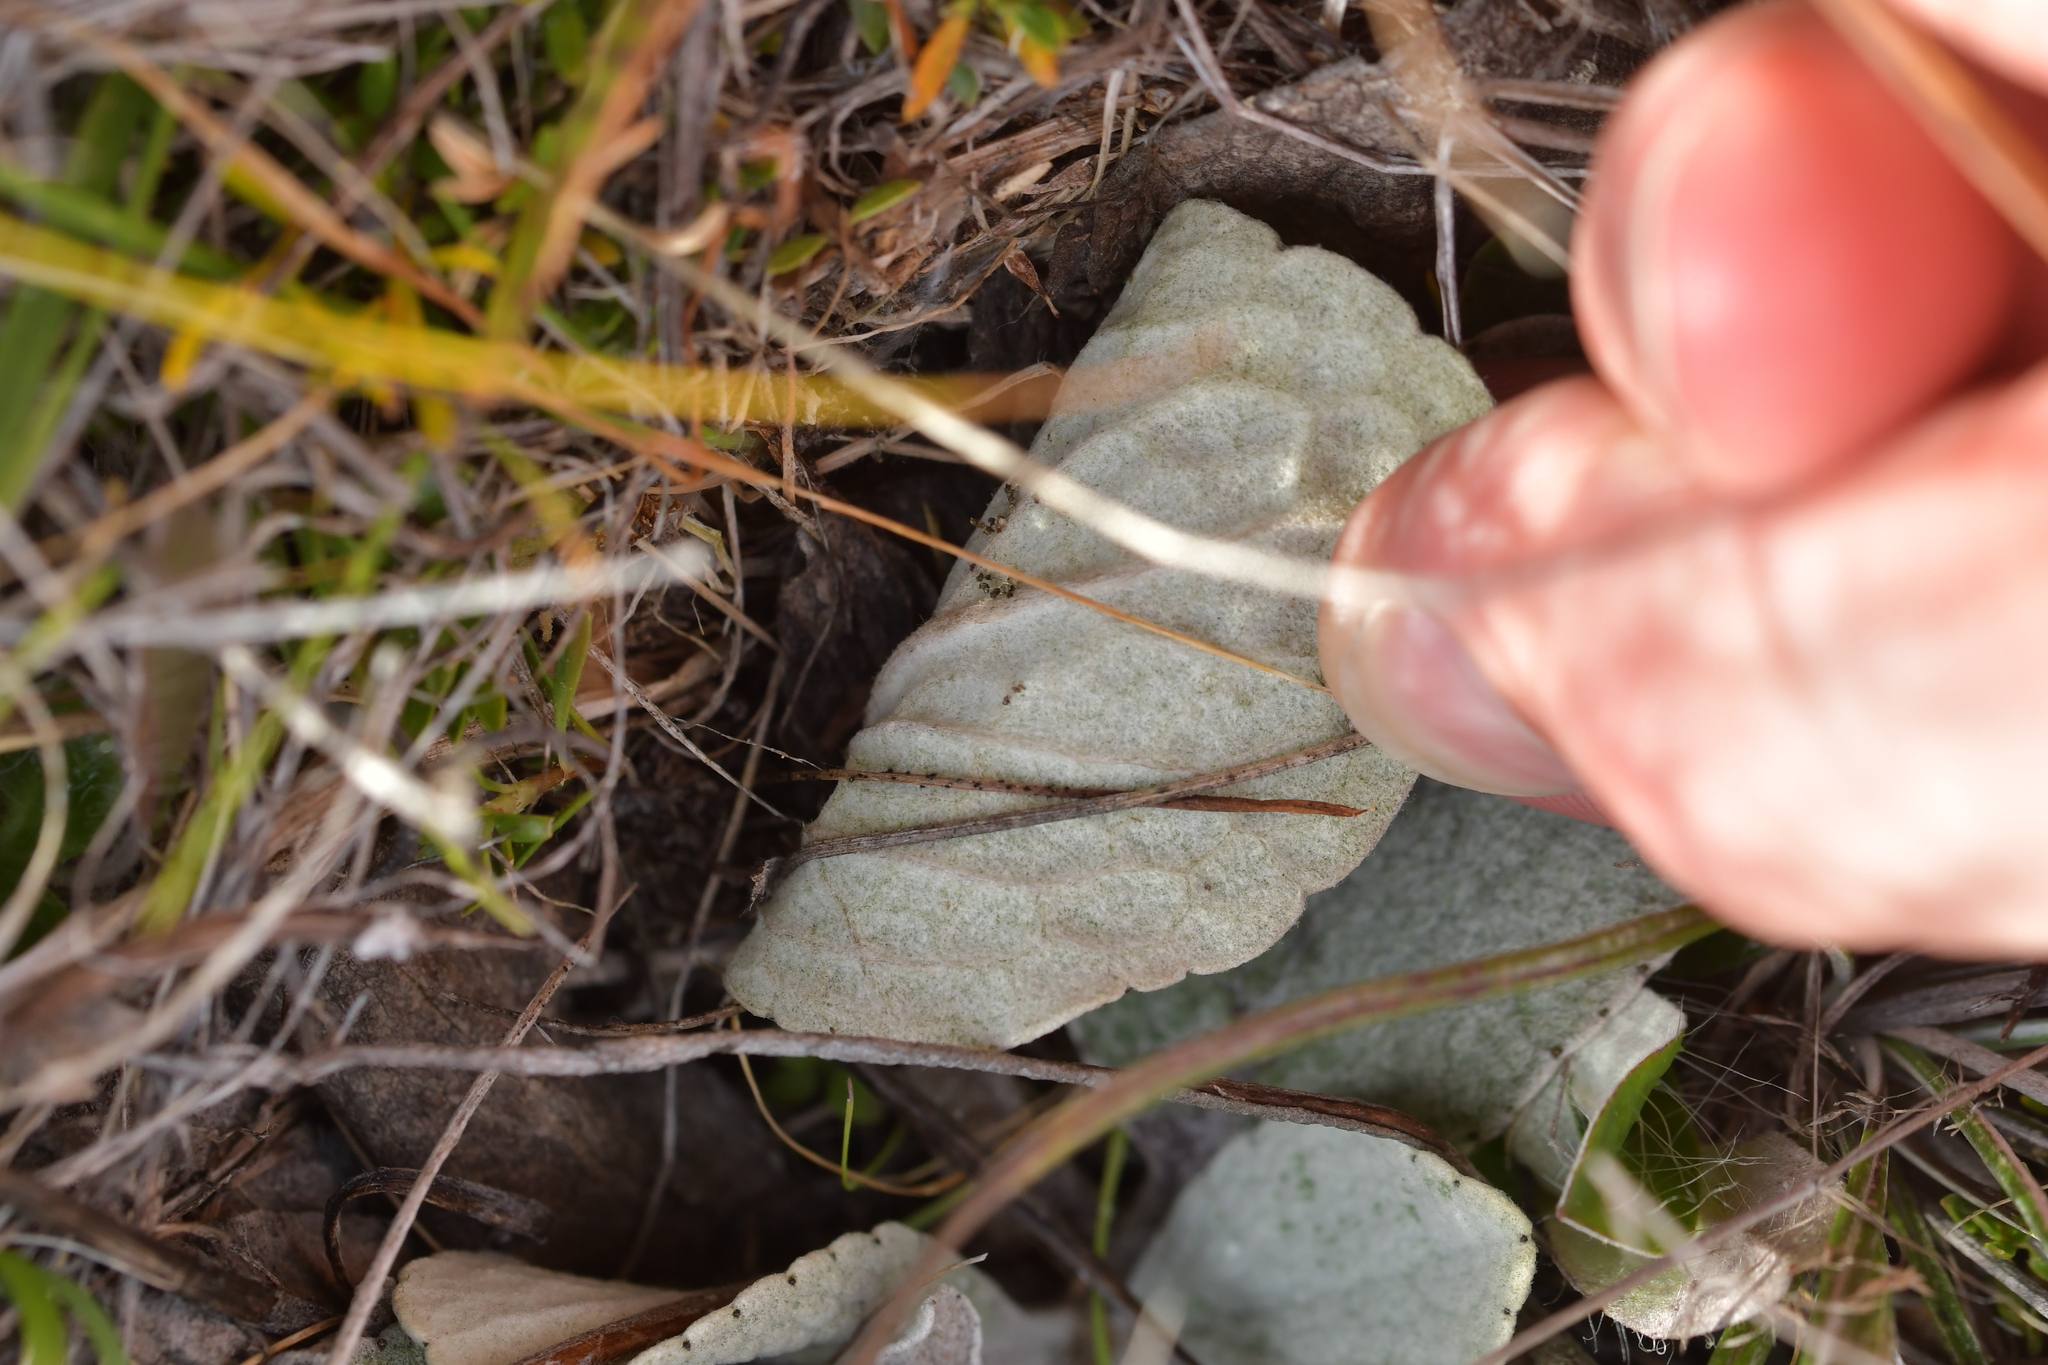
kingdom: Plantae
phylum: Tracheophyta
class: Magnoliopsida
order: Asterales
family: Asteraceae
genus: Brachyglottis
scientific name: Brachyglottis haastii
